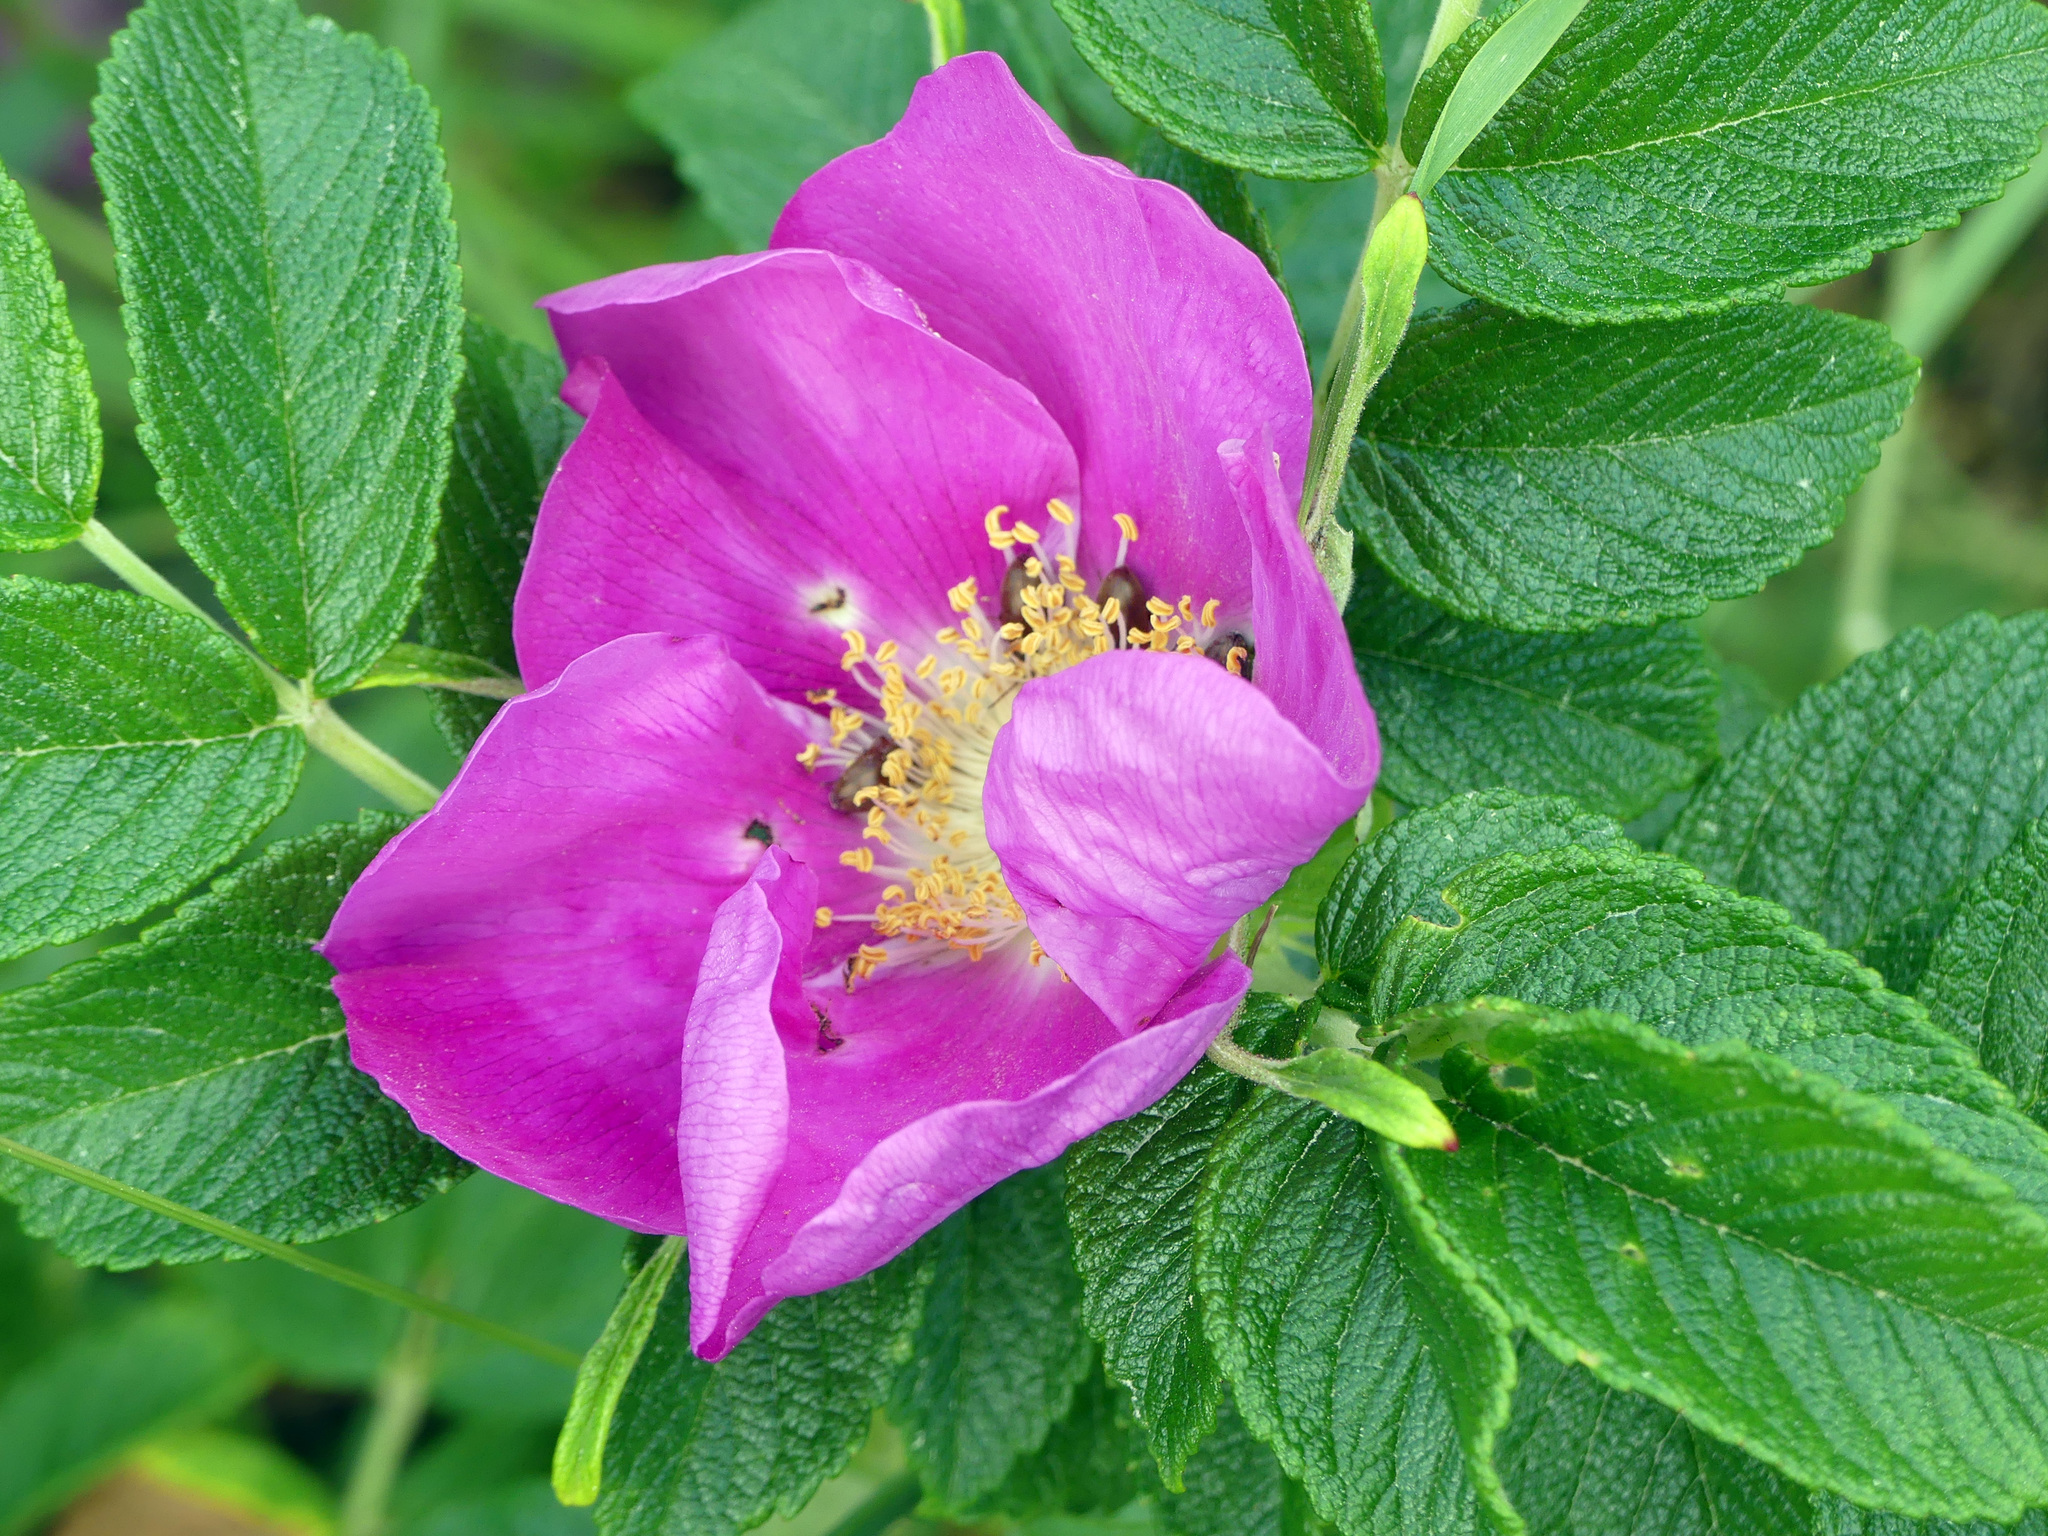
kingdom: Plantae
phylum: Tracheophyta
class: Magnoliopsida
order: Rosales
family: Rosaceae
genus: Rosa
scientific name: Rosa rugosa
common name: Japanese rose
